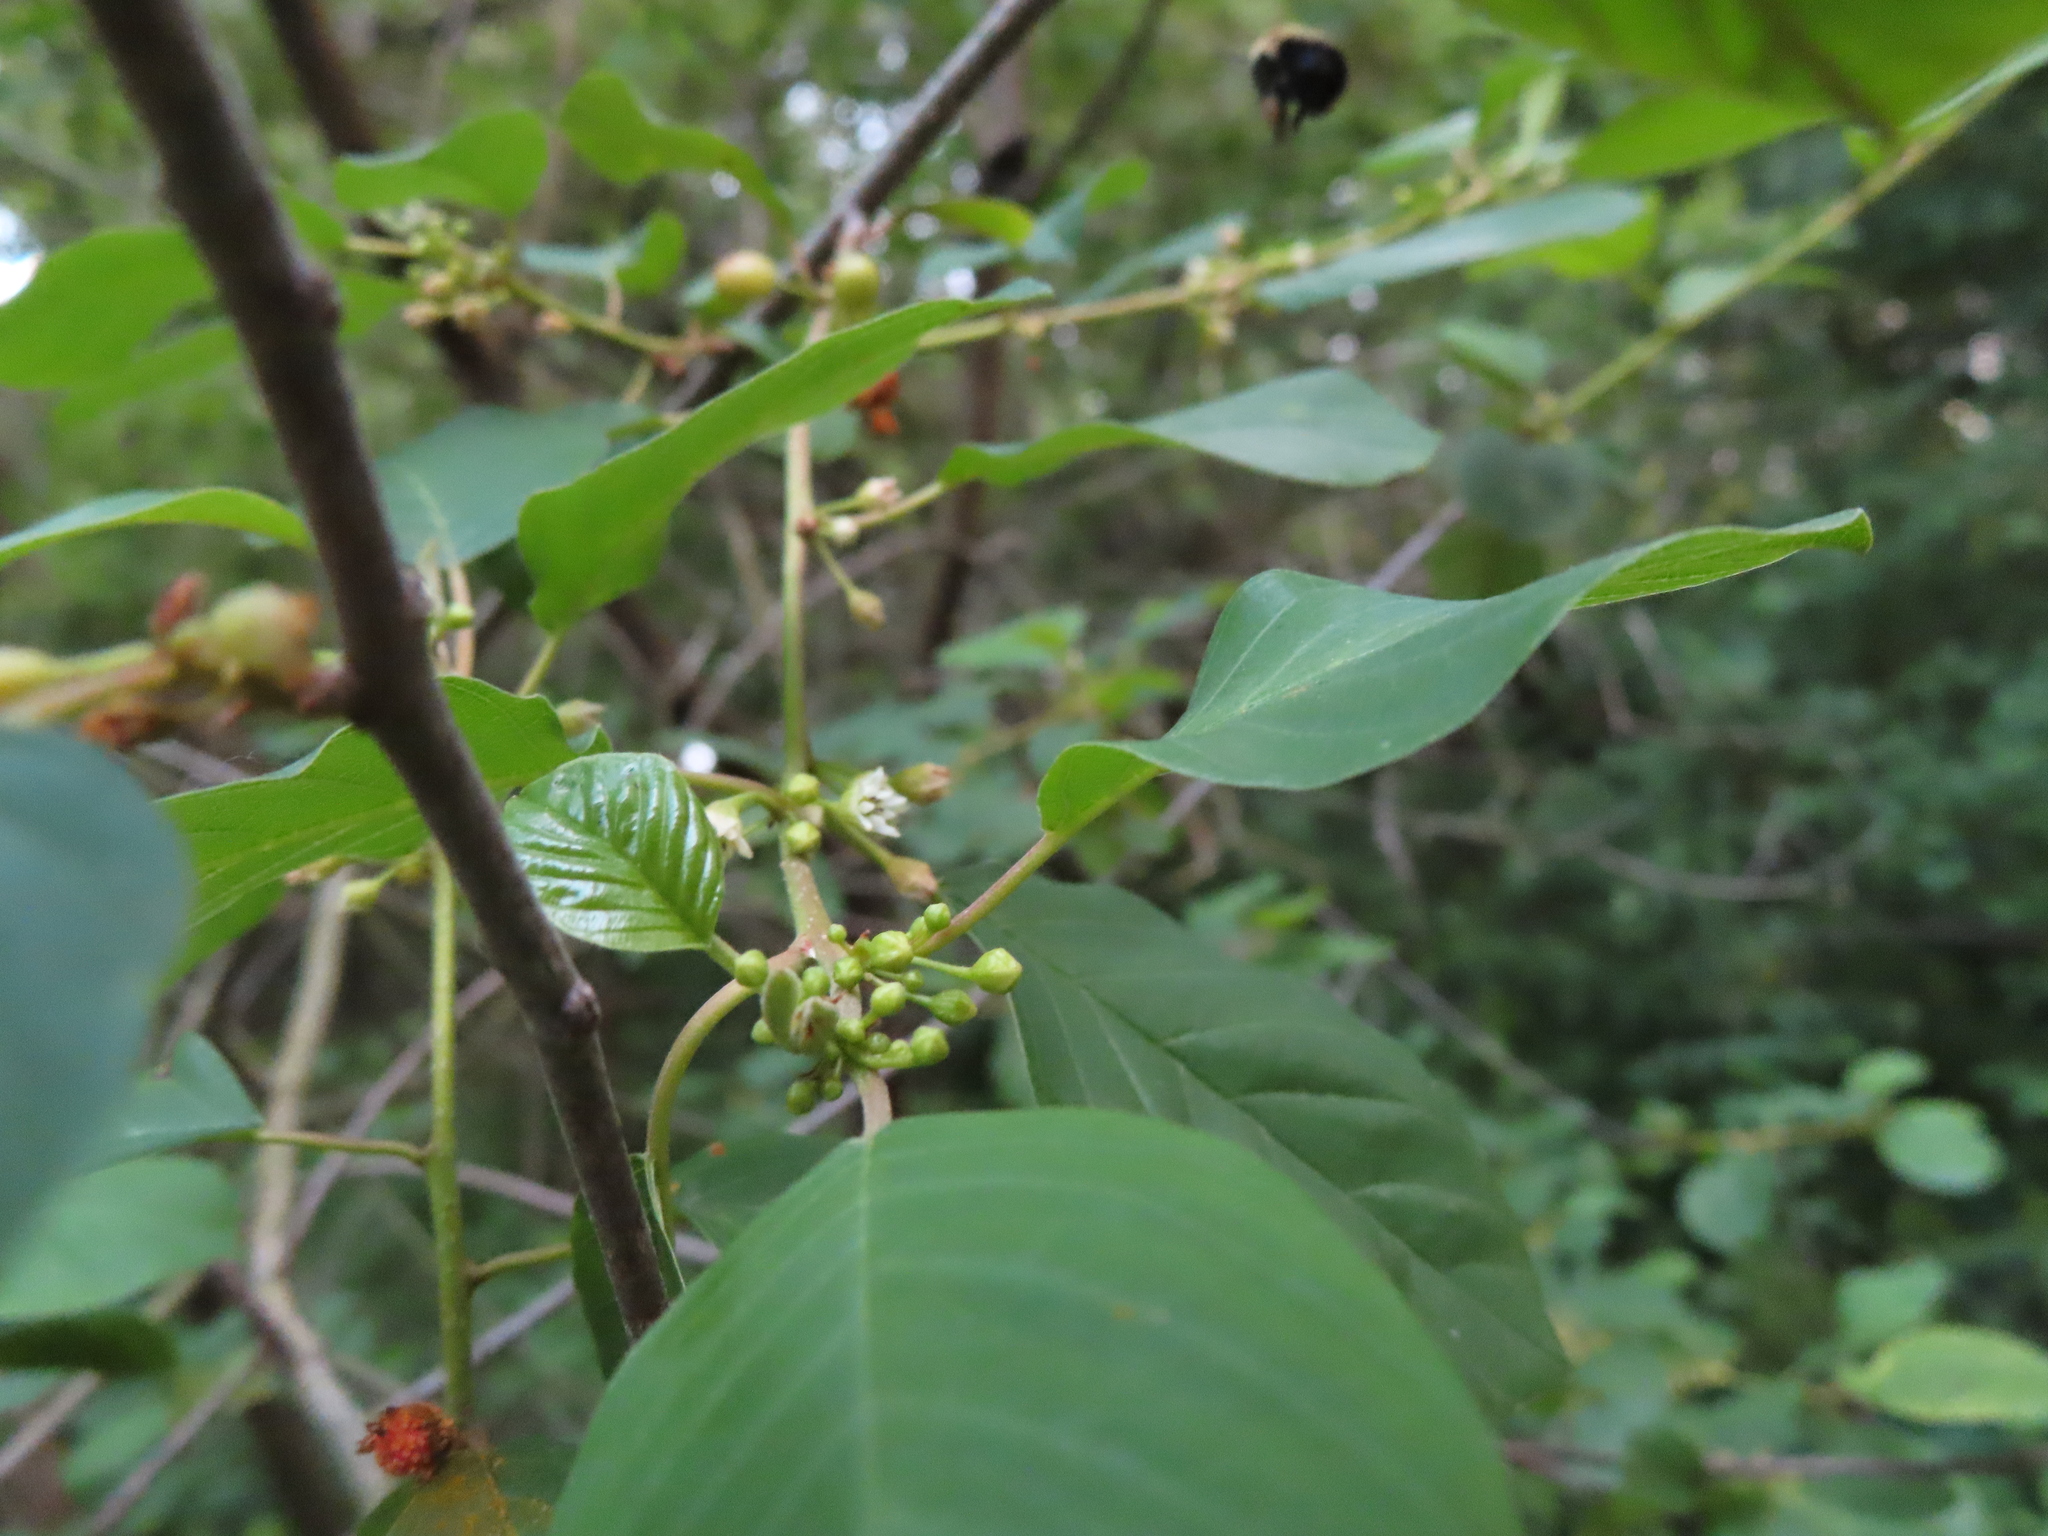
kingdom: Plantae
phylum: Tracheophyta
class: Magnoliopsida
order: Rosales
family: Rhamnaceae
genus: Frangula
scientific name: Frangula alnus
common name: Alder buckthorn
